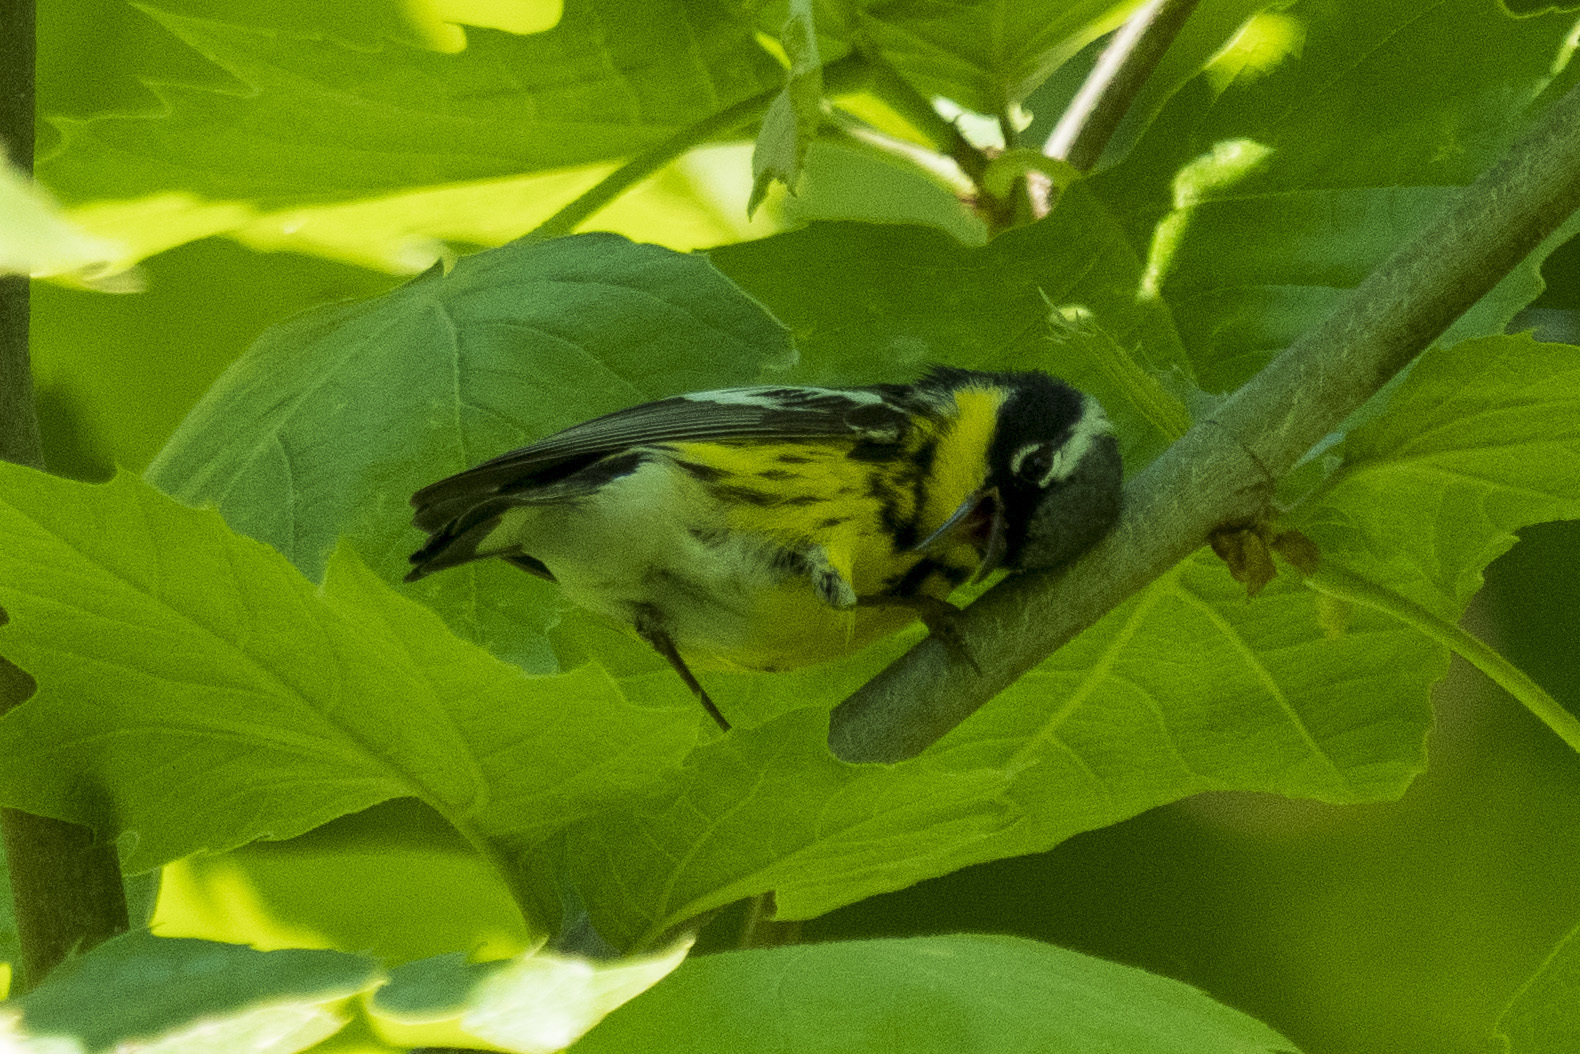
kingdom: Animalia
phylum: Chordata
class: Aves
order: Passeriformes
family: Parulidae
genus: Setophaga
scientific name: Setophaga magnolia
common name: Magnolia warbler
